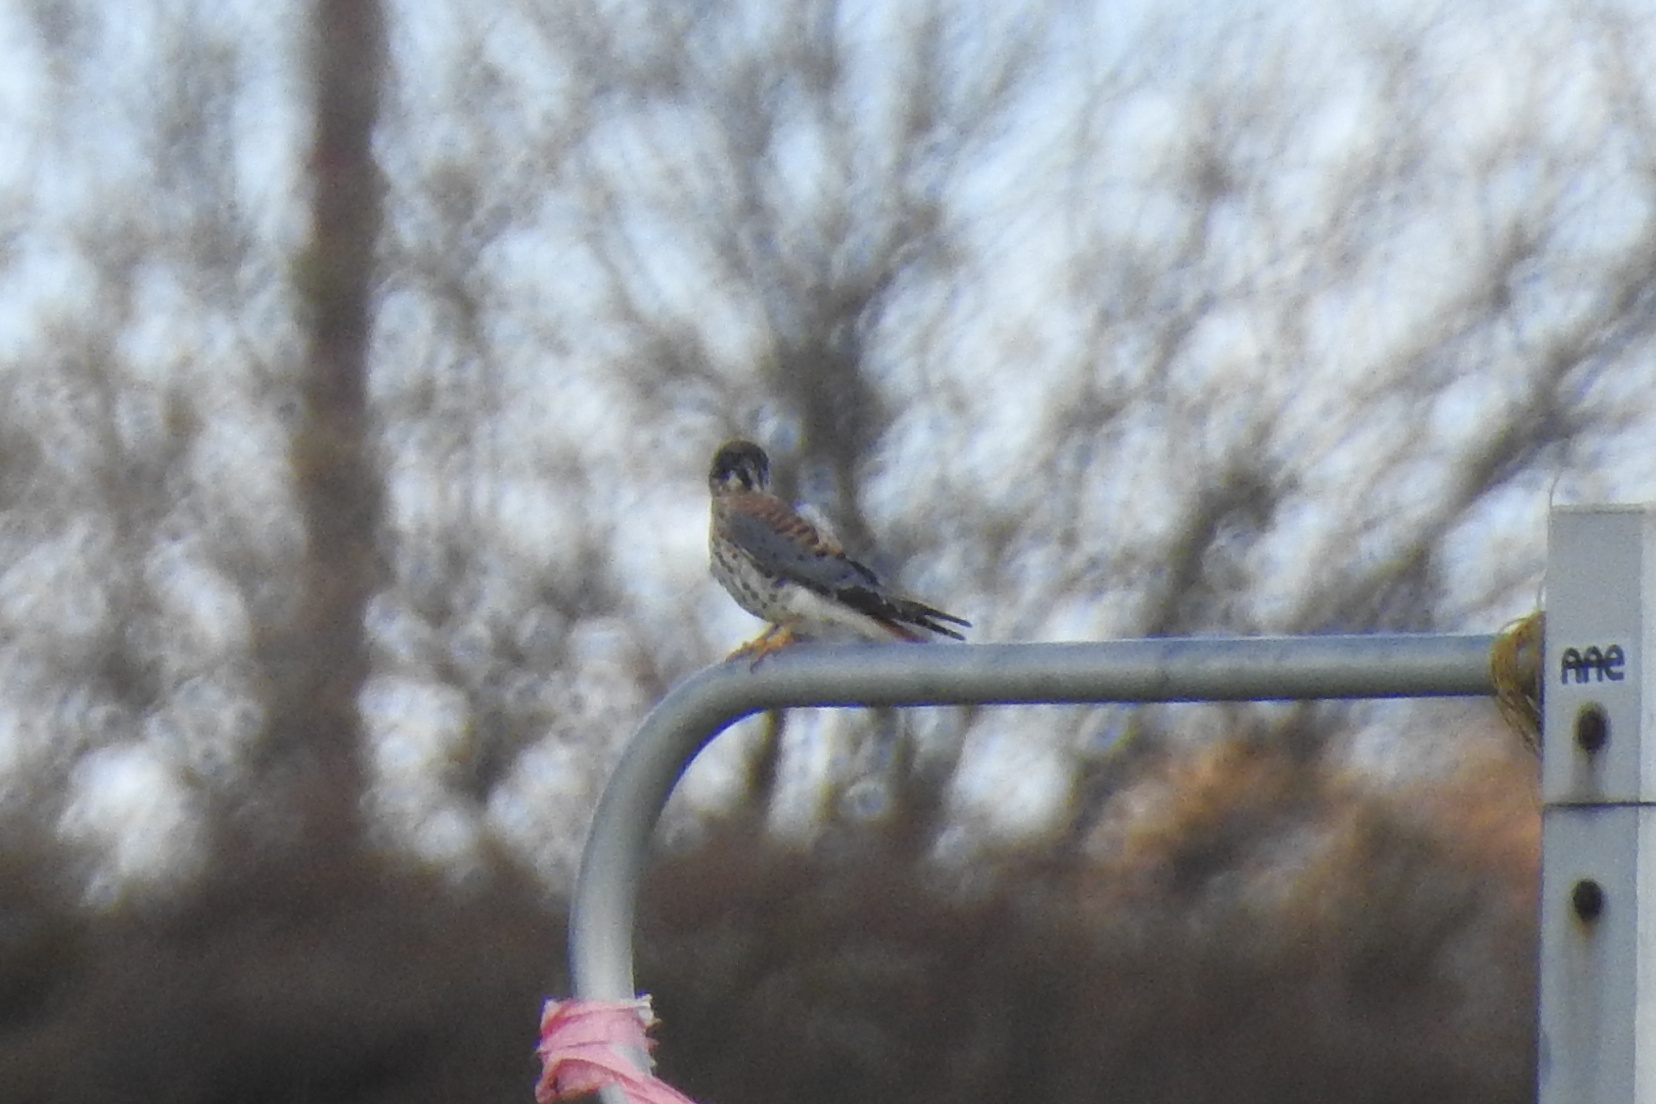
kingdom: Animalia
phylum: Chordata
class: Aves
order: Falconiformes
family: Falconidae
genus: Falco
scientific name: Falco sparverius
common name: American kestrel
